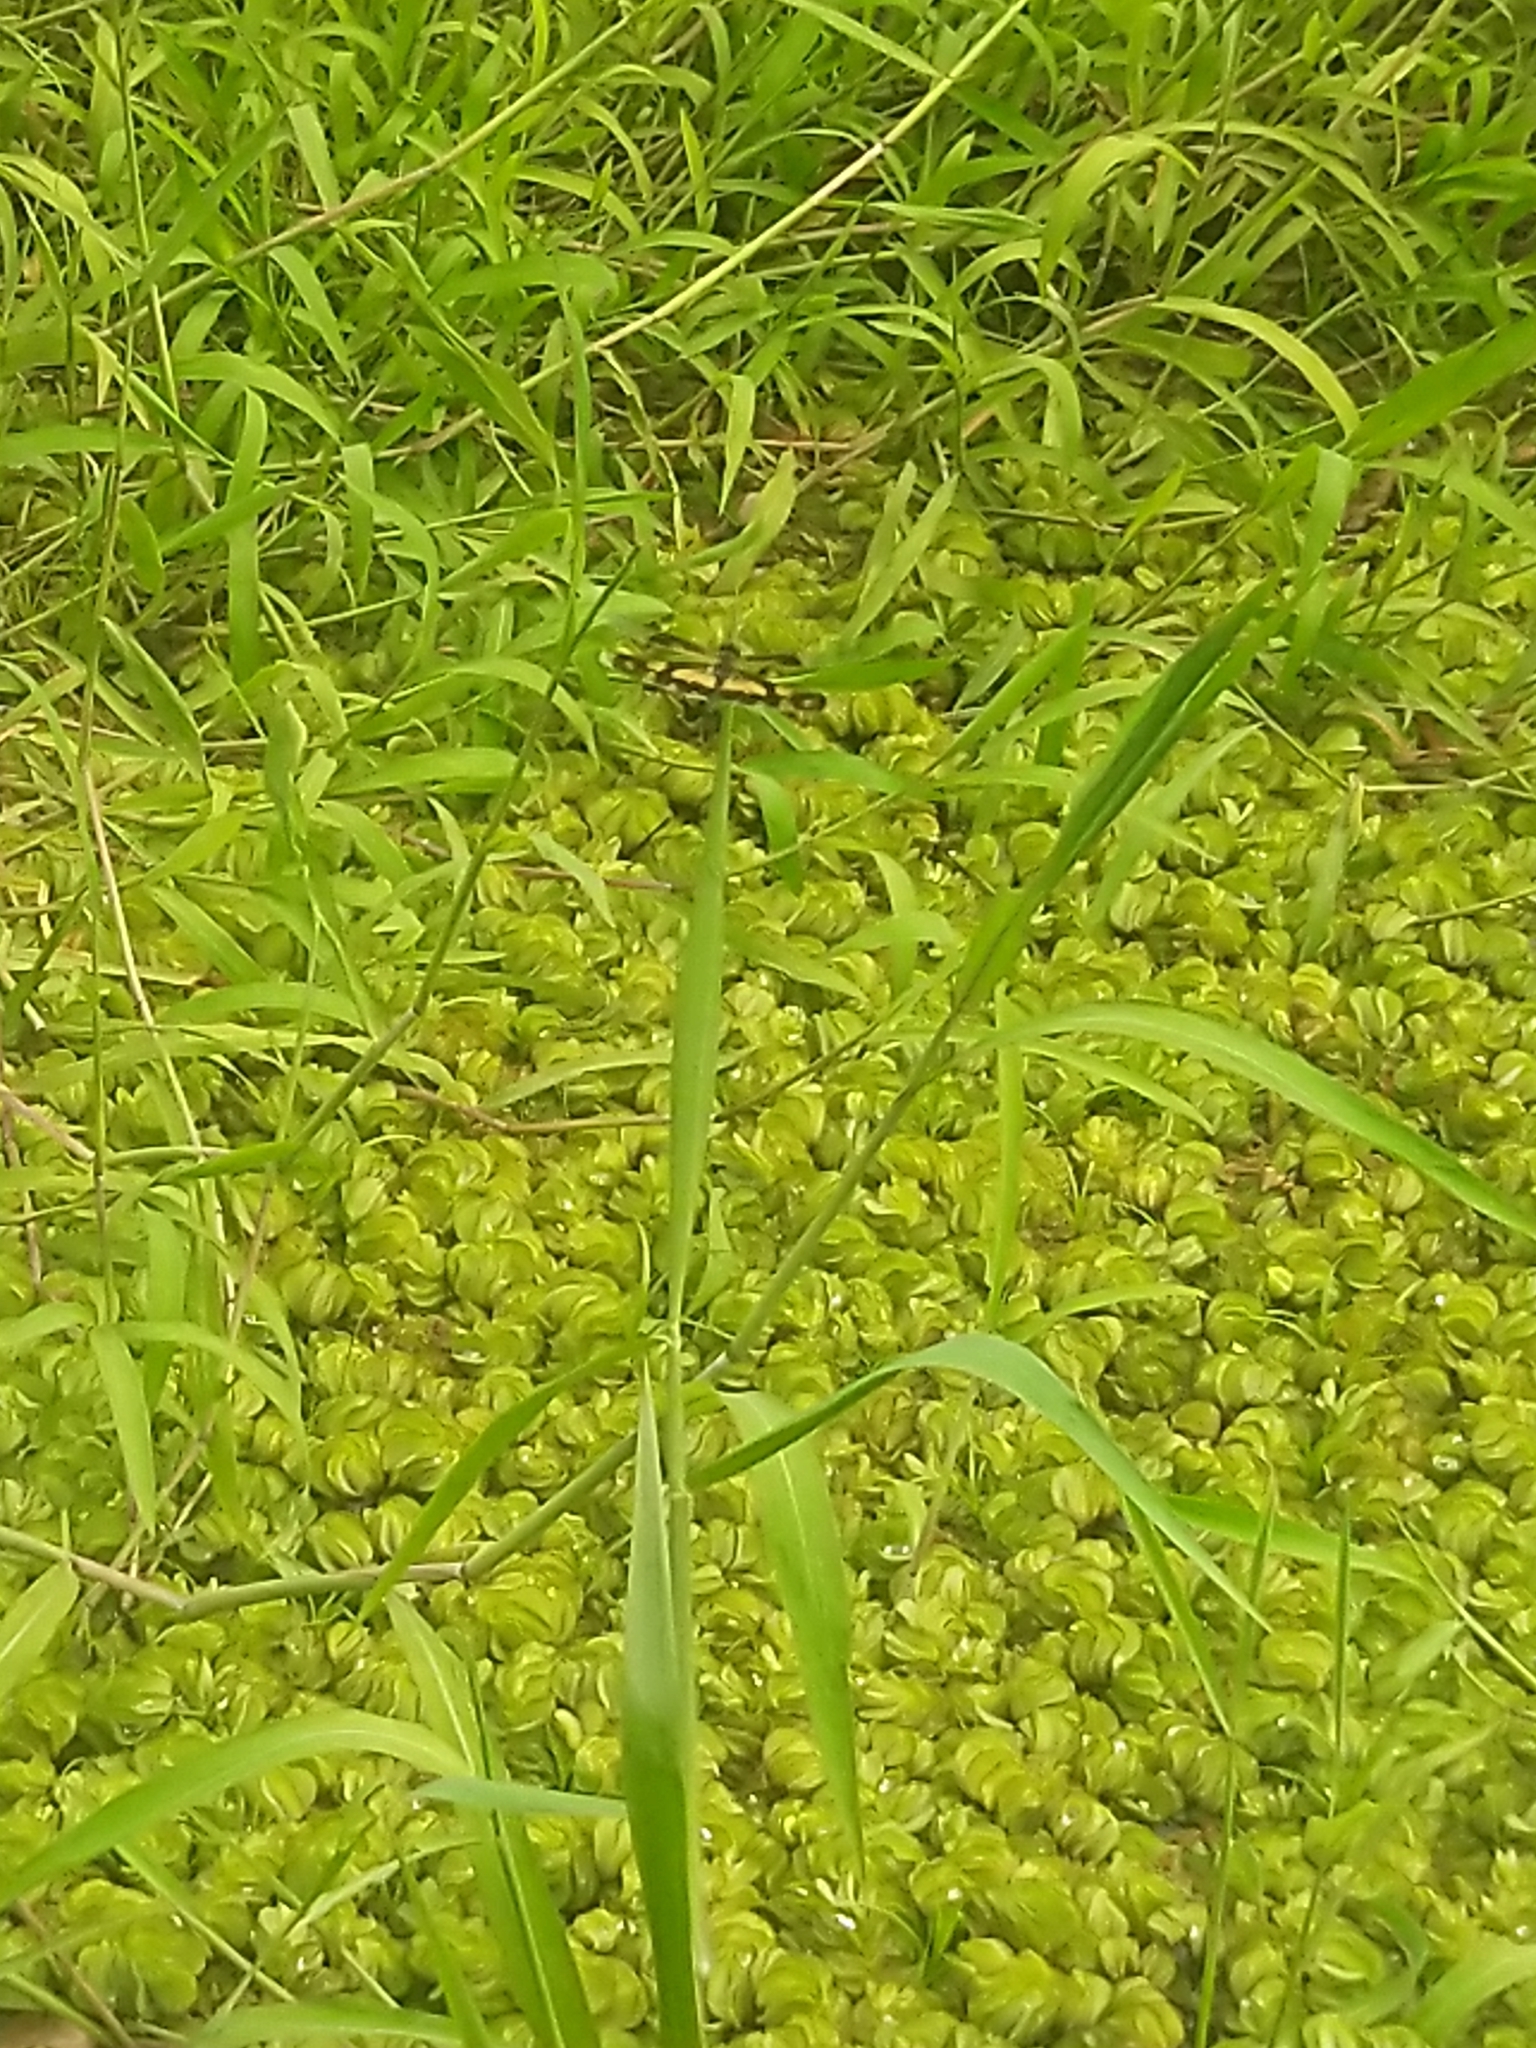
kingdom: Animalia
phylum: Arthropoda
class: Insecta
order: Odonata
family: Libellulidae
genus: Rhyothemis
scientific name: Rhyothemis variegata
